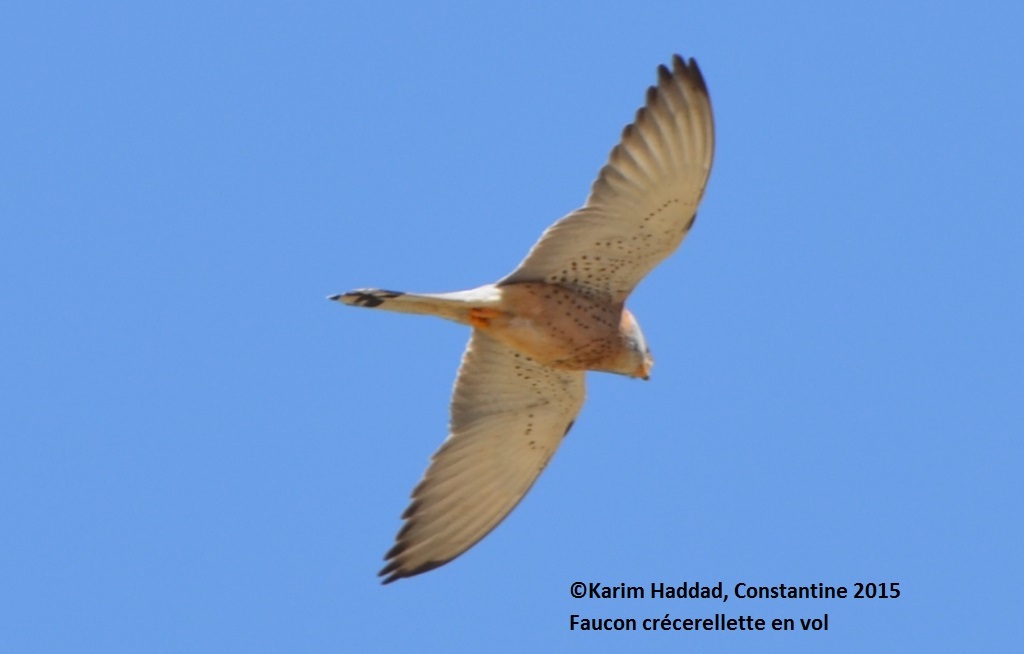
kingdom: Animalia
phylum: Chordata
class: Aves
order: Falconiformes
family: Falconidae
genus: Falco
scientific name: Falco naumanni
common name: Lesser kestrel
